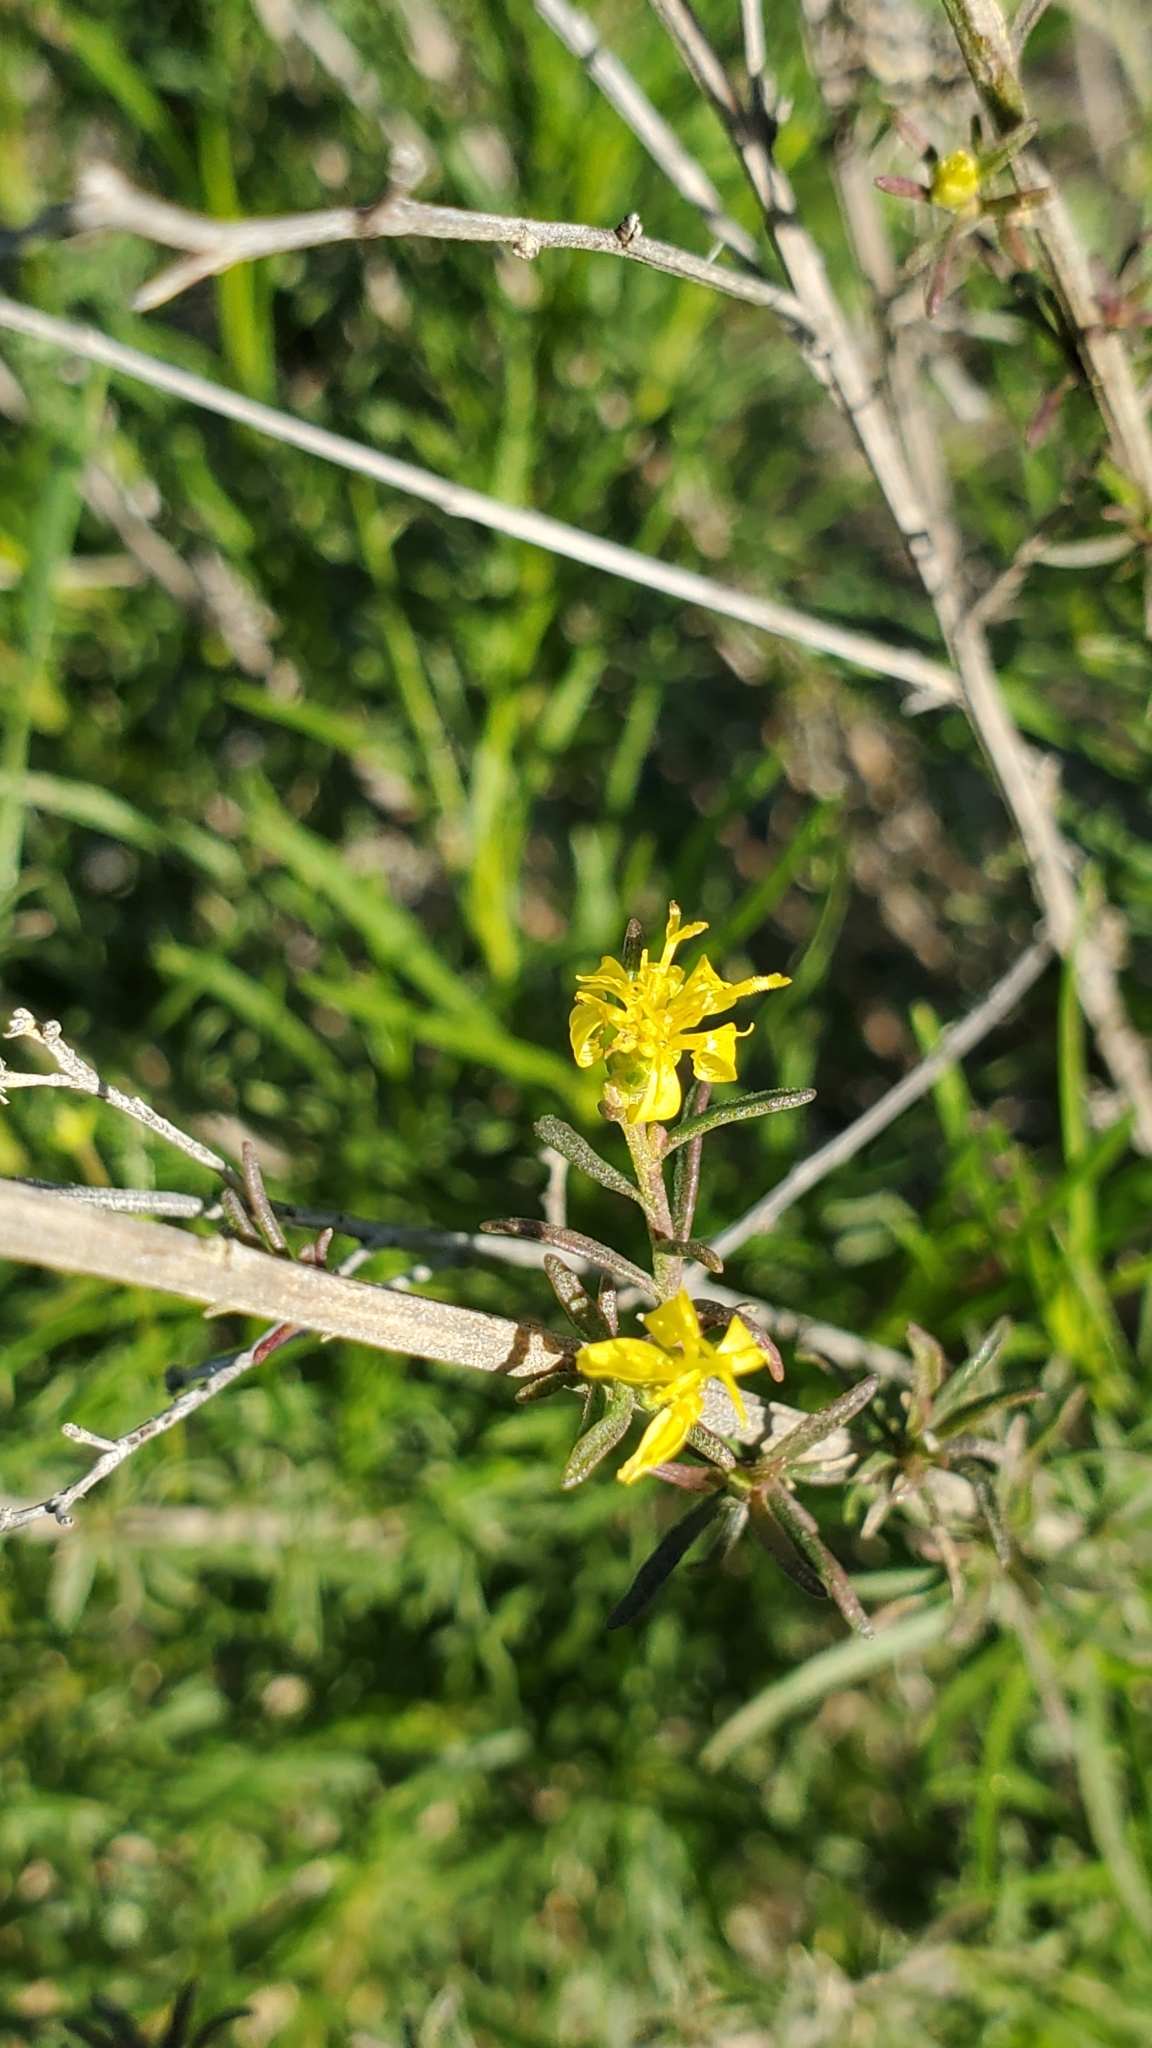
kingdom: Plantae
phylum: Tracheophyta
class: Magnoliopsida
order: Asterales
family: Asteraceae
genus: Gutierrezia
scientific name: Gutierrezia californica
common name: California matchweed
